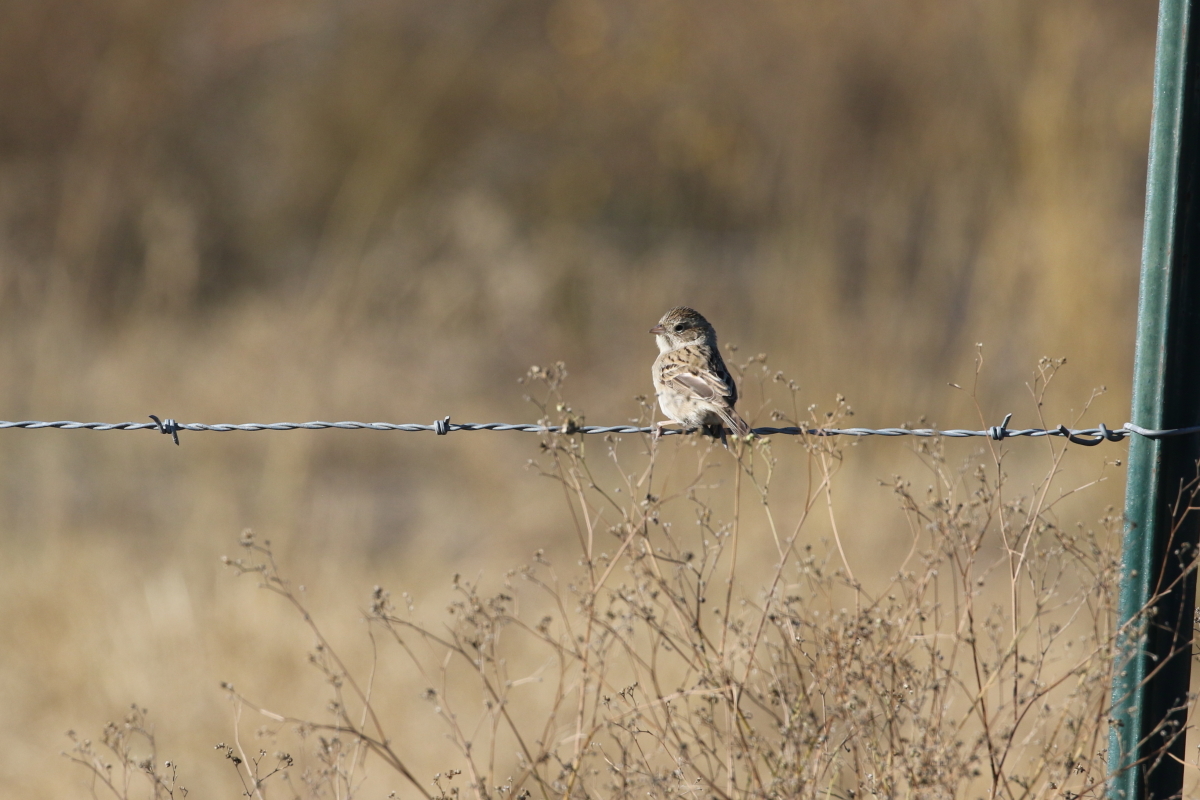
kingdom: Animalia
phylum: Chordata
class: Aves
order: Passeriformes
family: Passerellidae
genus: Spizella
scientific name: Spizella breweri
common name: Brewer's sparrow
